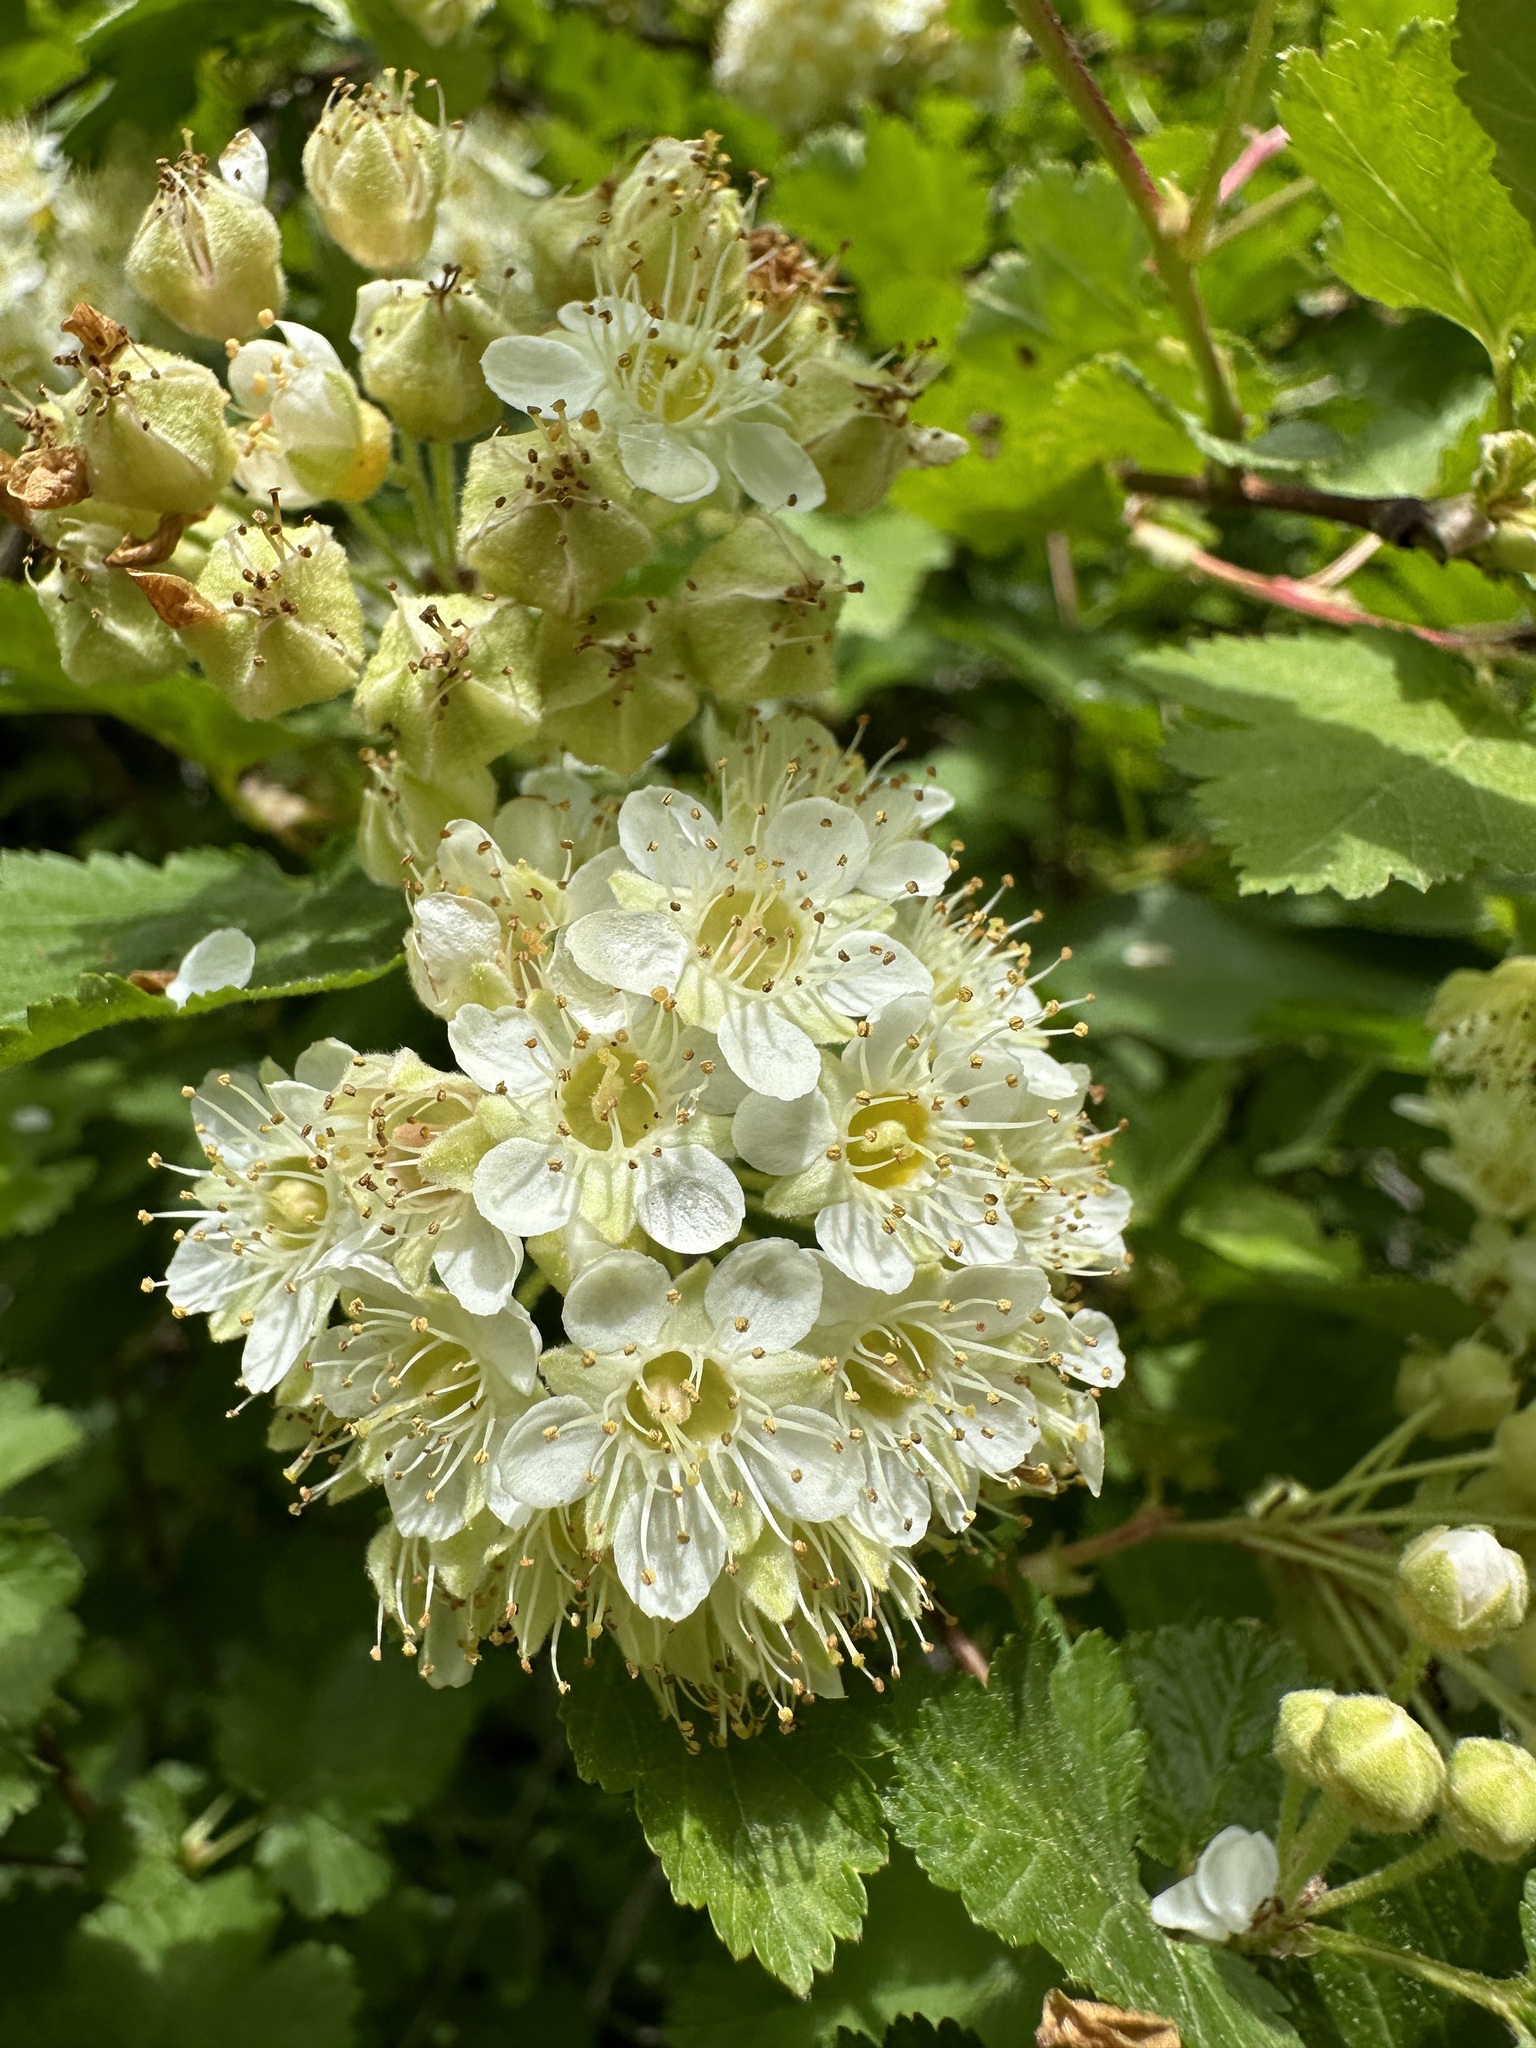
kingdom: Plantae
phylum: Tracheophyta
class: Magnoliopsida
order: Rosales
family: Rosaceae
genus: Physocarpus
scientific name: Physocarpus malvaceus
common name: Mallow ninebark
